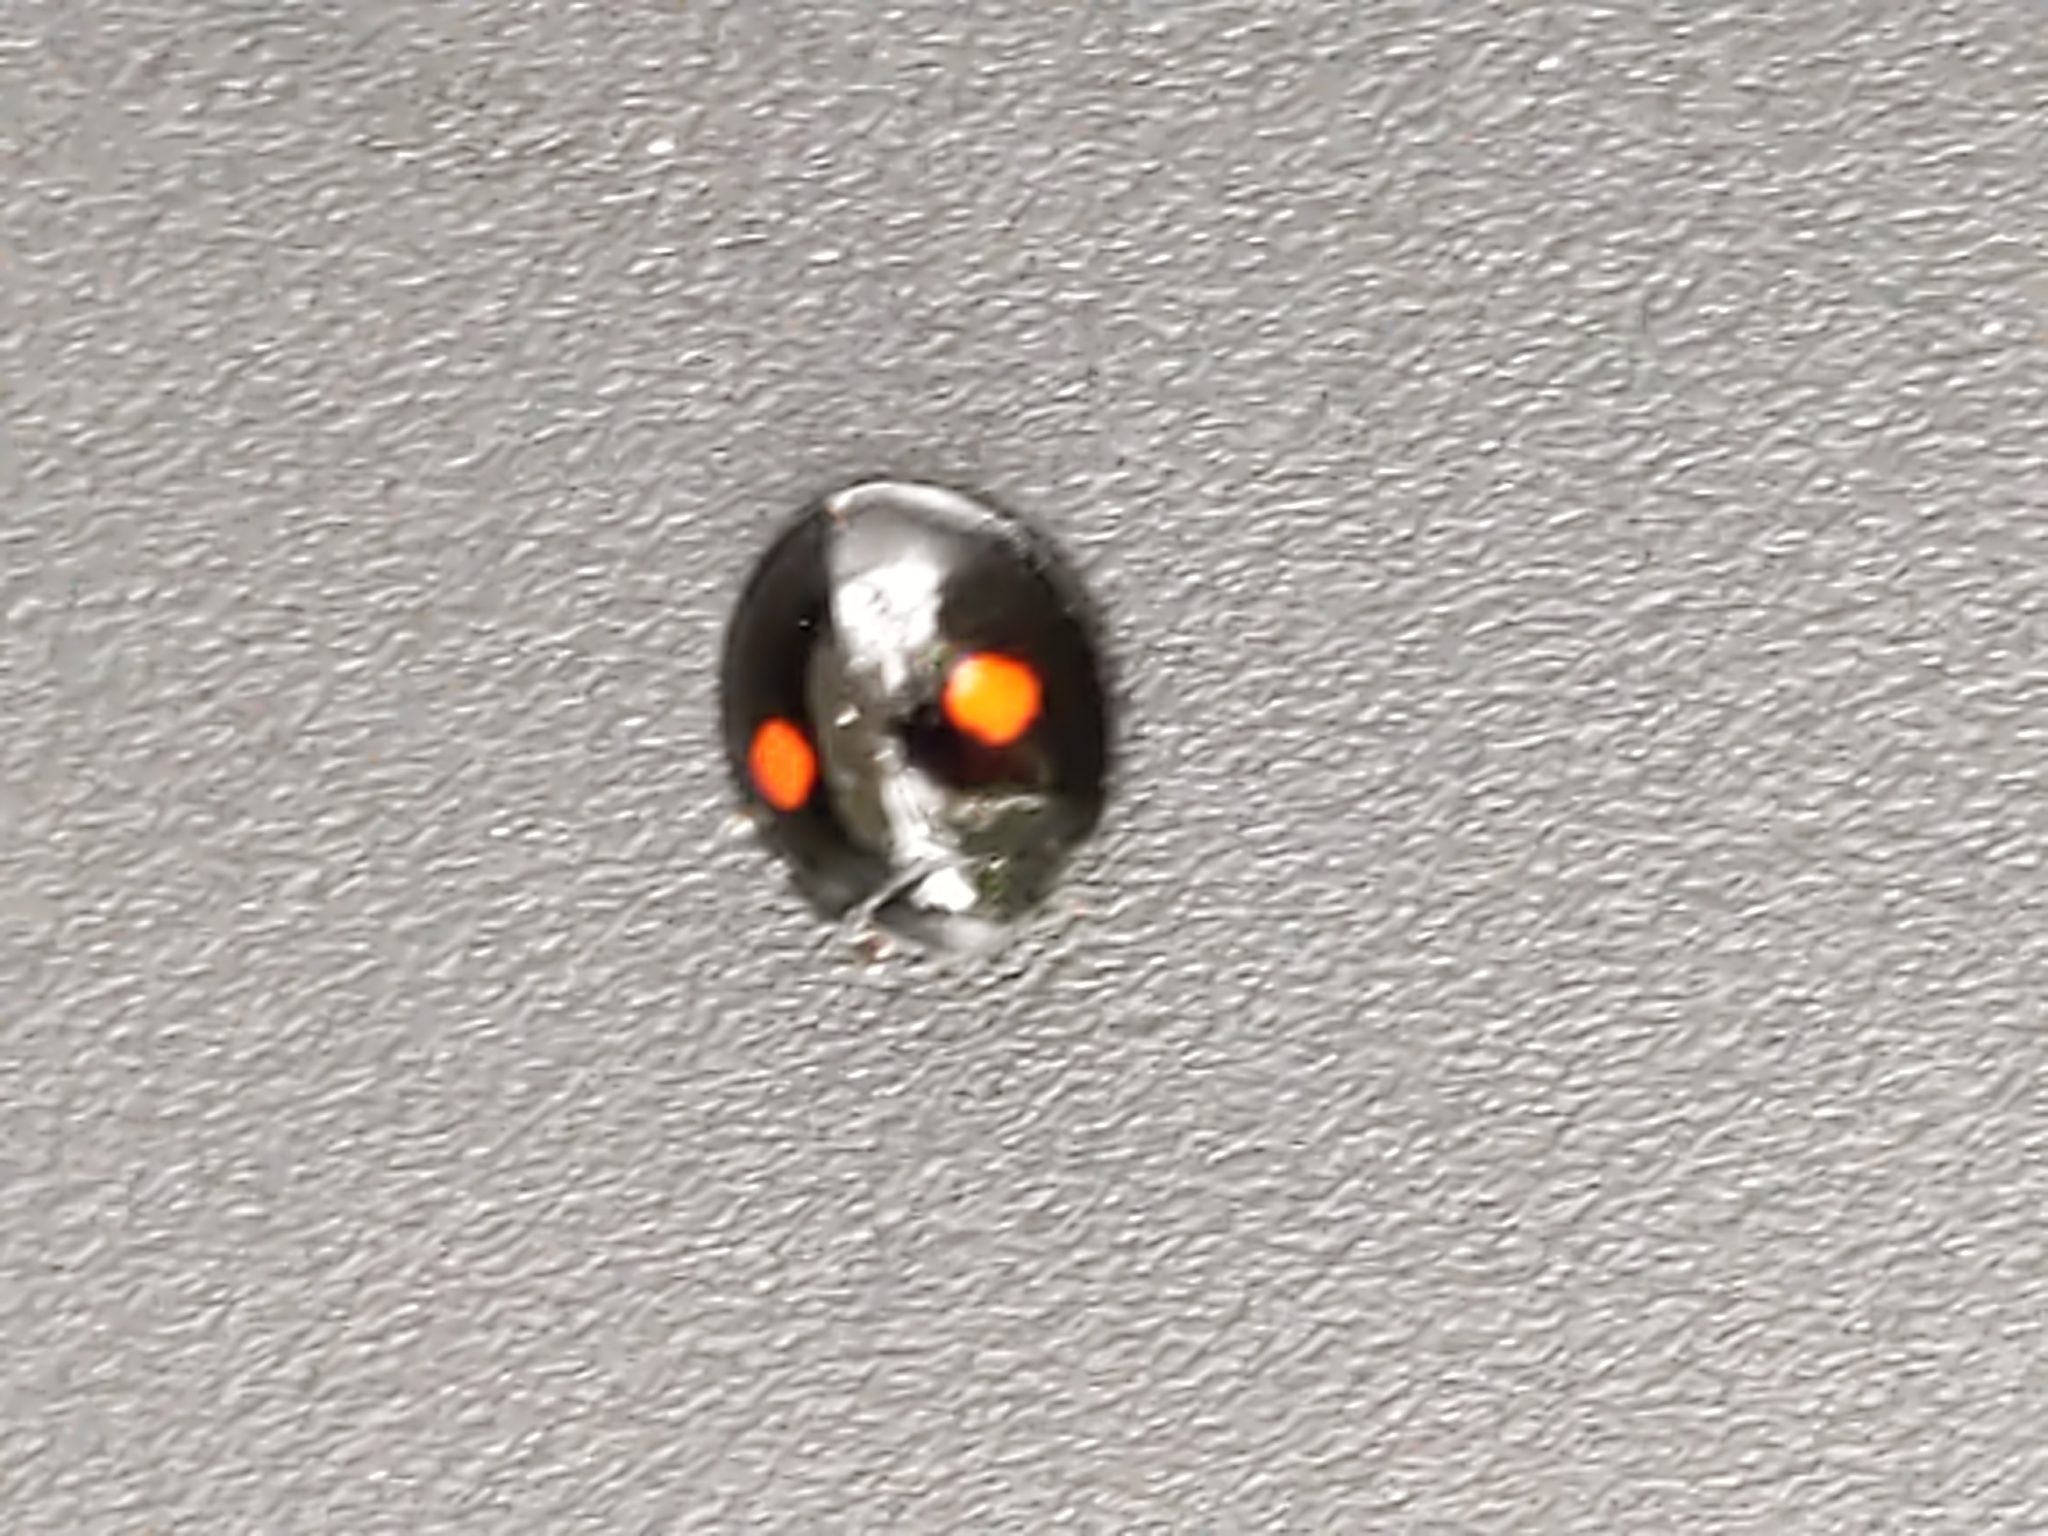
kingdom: Animalia
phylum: Arthropoda
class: Insecta
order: Coleoptera
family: Coccinellidae
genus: Chilocorus
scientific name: Chilocorus stigma
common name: Twicestabbed lady beetle
